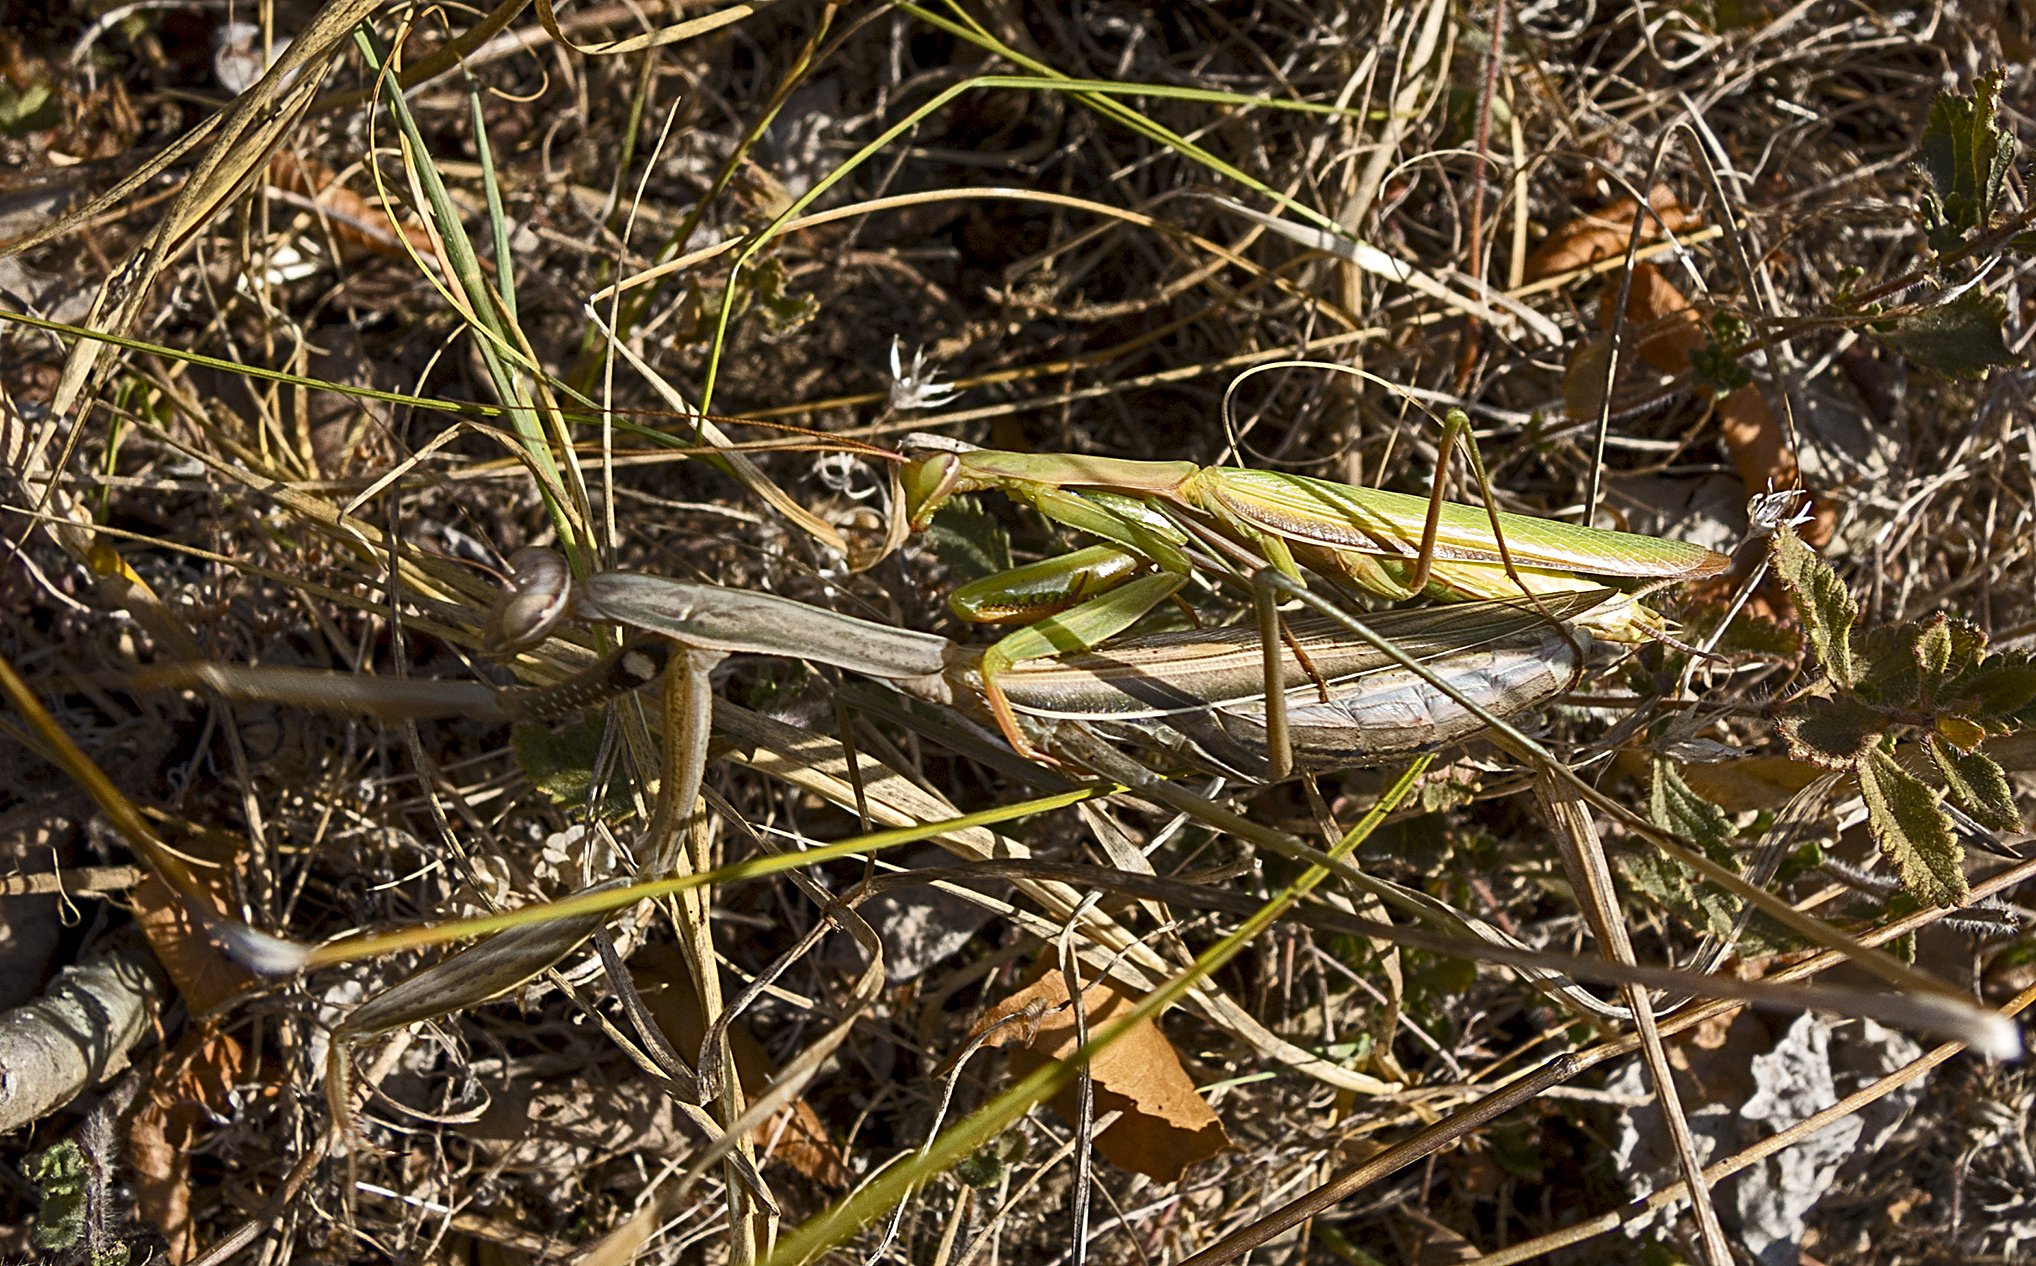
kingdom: Animalia
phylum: Arthropoda
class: Insecta
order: Mantodea
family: Mantidae
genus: Mantis
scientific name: Mantis religiosa
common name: Praying mantis
